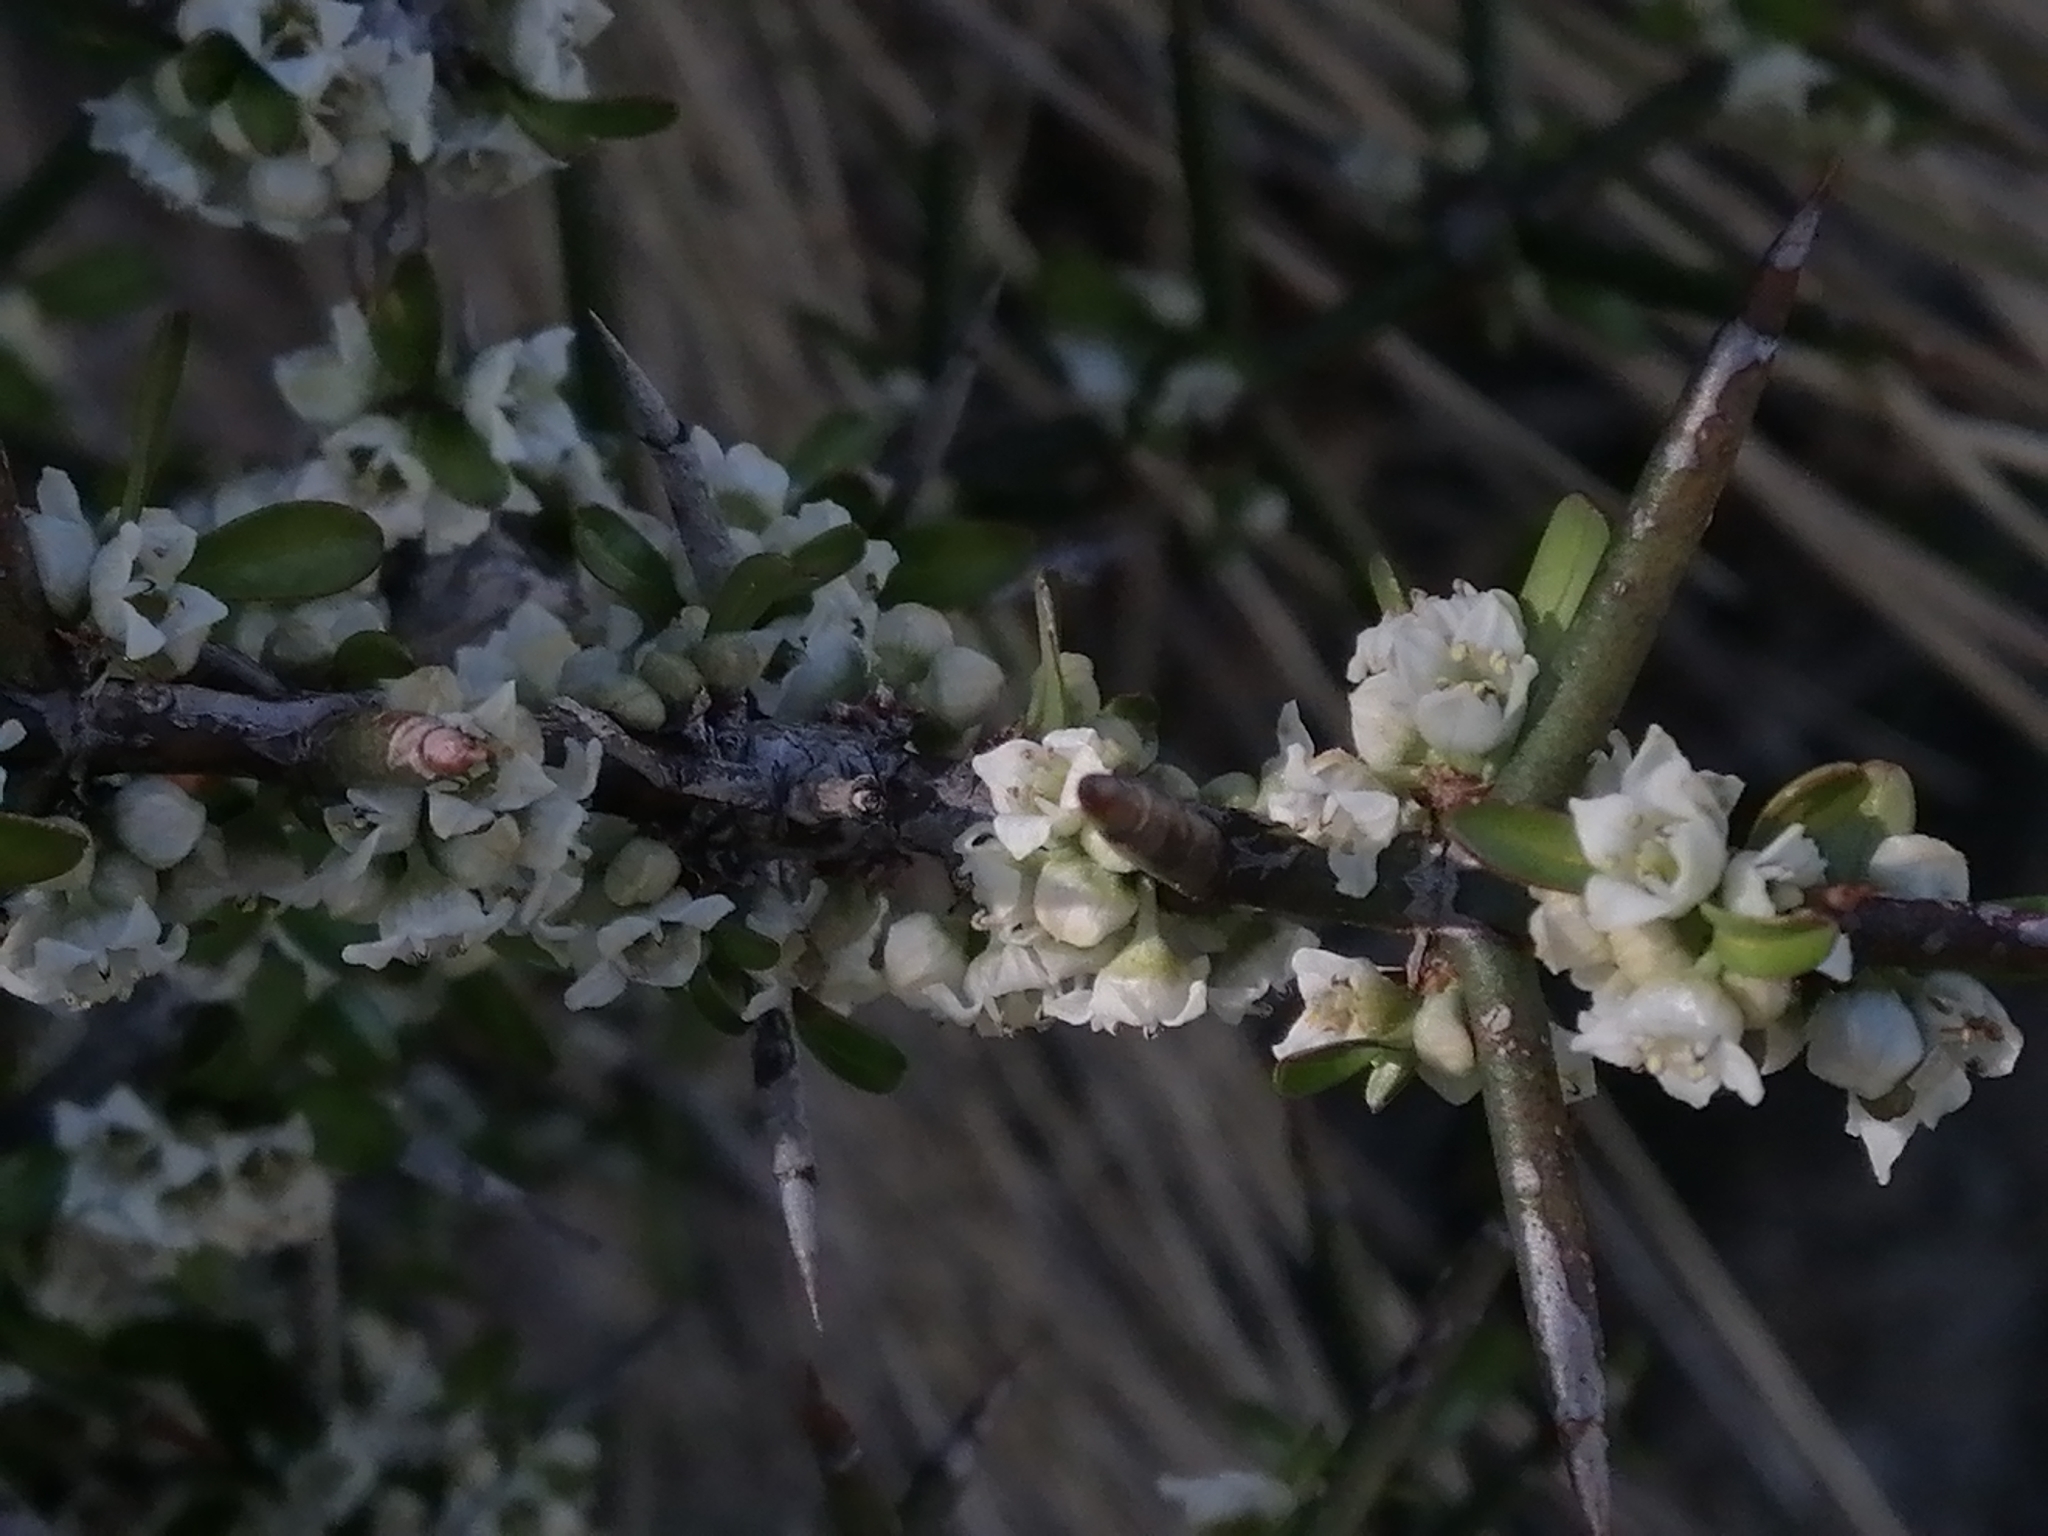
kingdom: Plantae
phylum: Tracheophyta
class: Magnoliopsida
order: Rosales
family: Rhamnaceae
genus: Discaria
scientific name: Discaria toumatou
